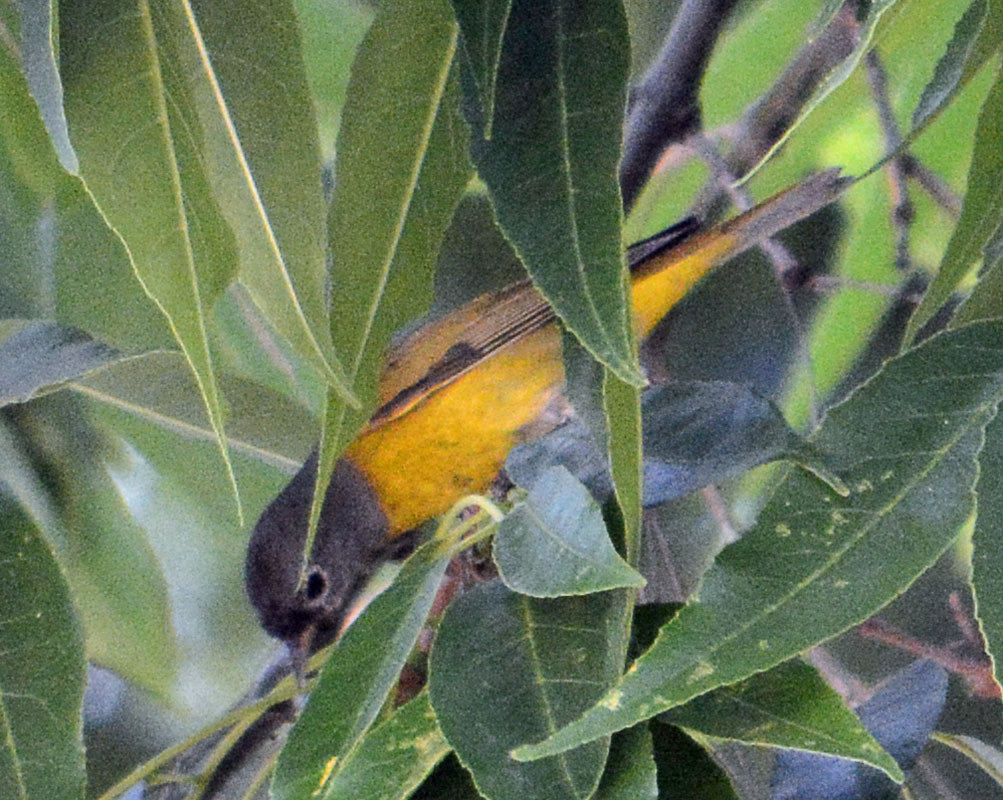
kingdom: Animalia
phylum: Chordata
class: Aves
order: Passeriformes
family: Parulidae
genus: Leiothlypis
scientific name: Leiothlypis ruficapilla
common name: Nashville warbler
